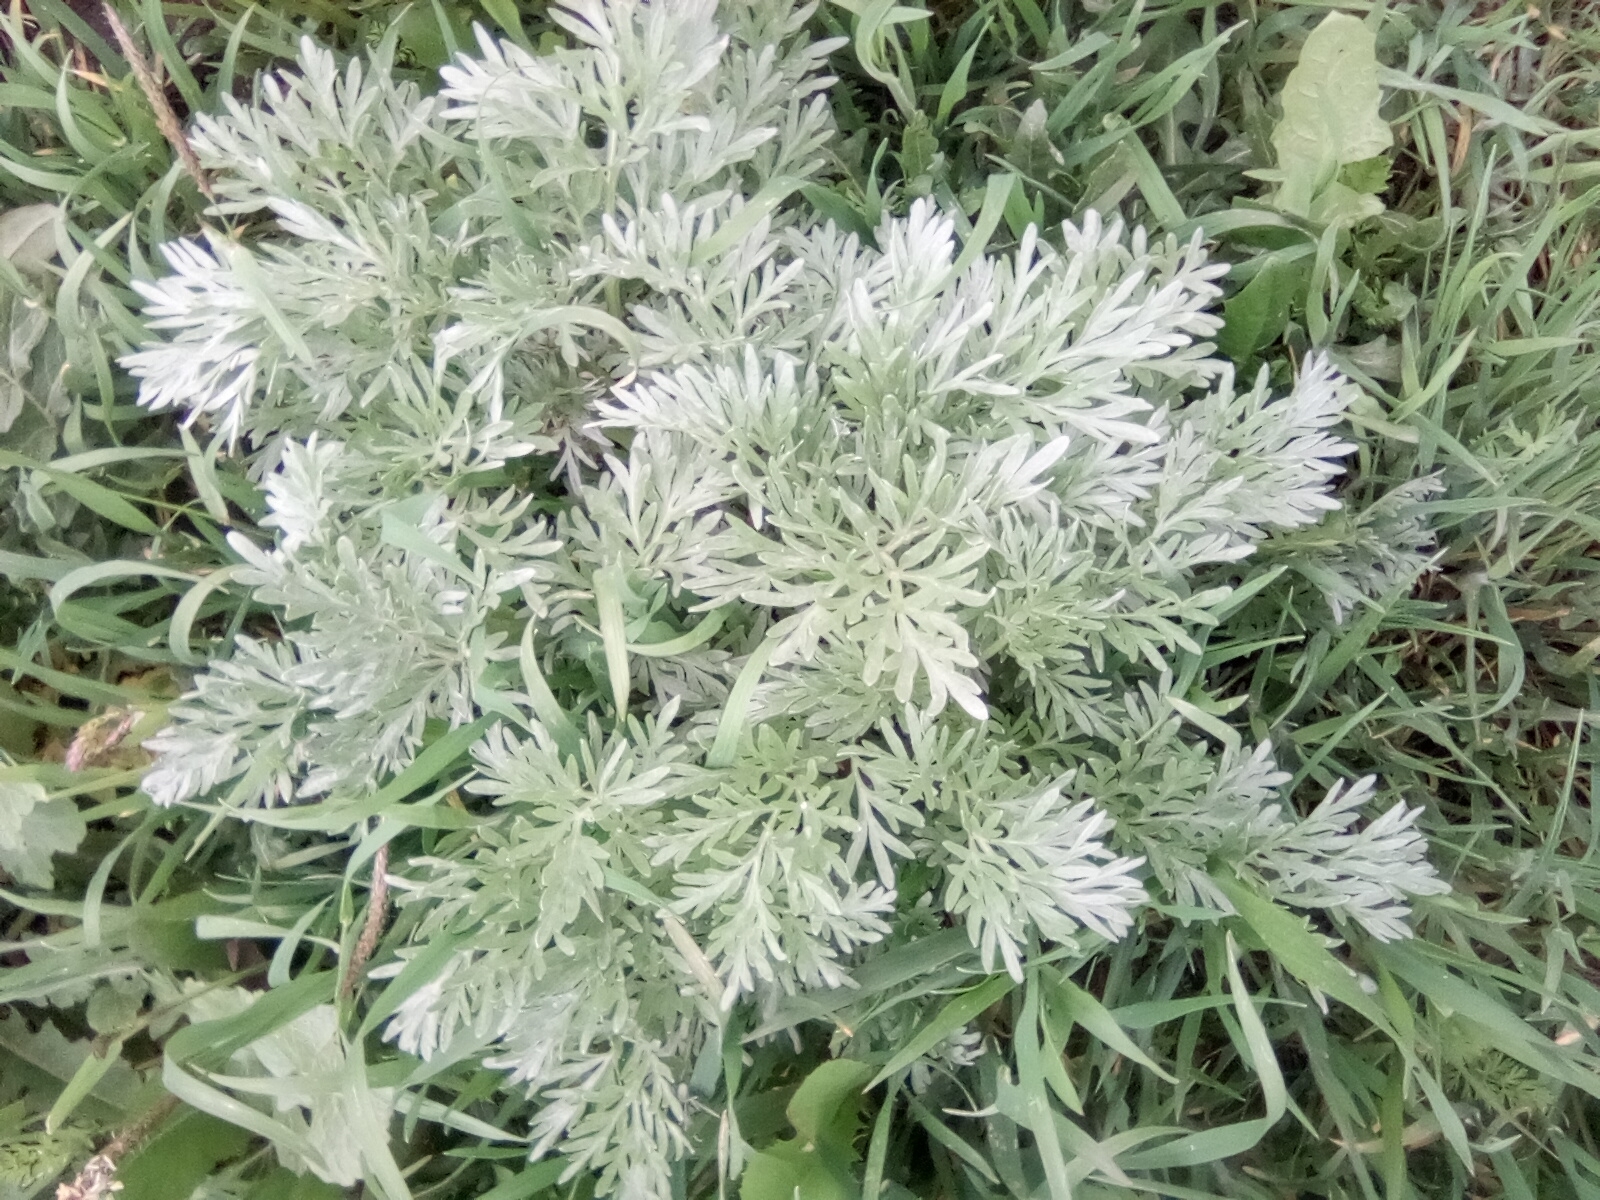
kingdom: Plantae
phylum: Tracheophyta
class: Magnoliopsida
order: Asterales
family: Asteraceae
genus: Artemisia
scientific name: Artemisia absinthium
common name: Wormwood
